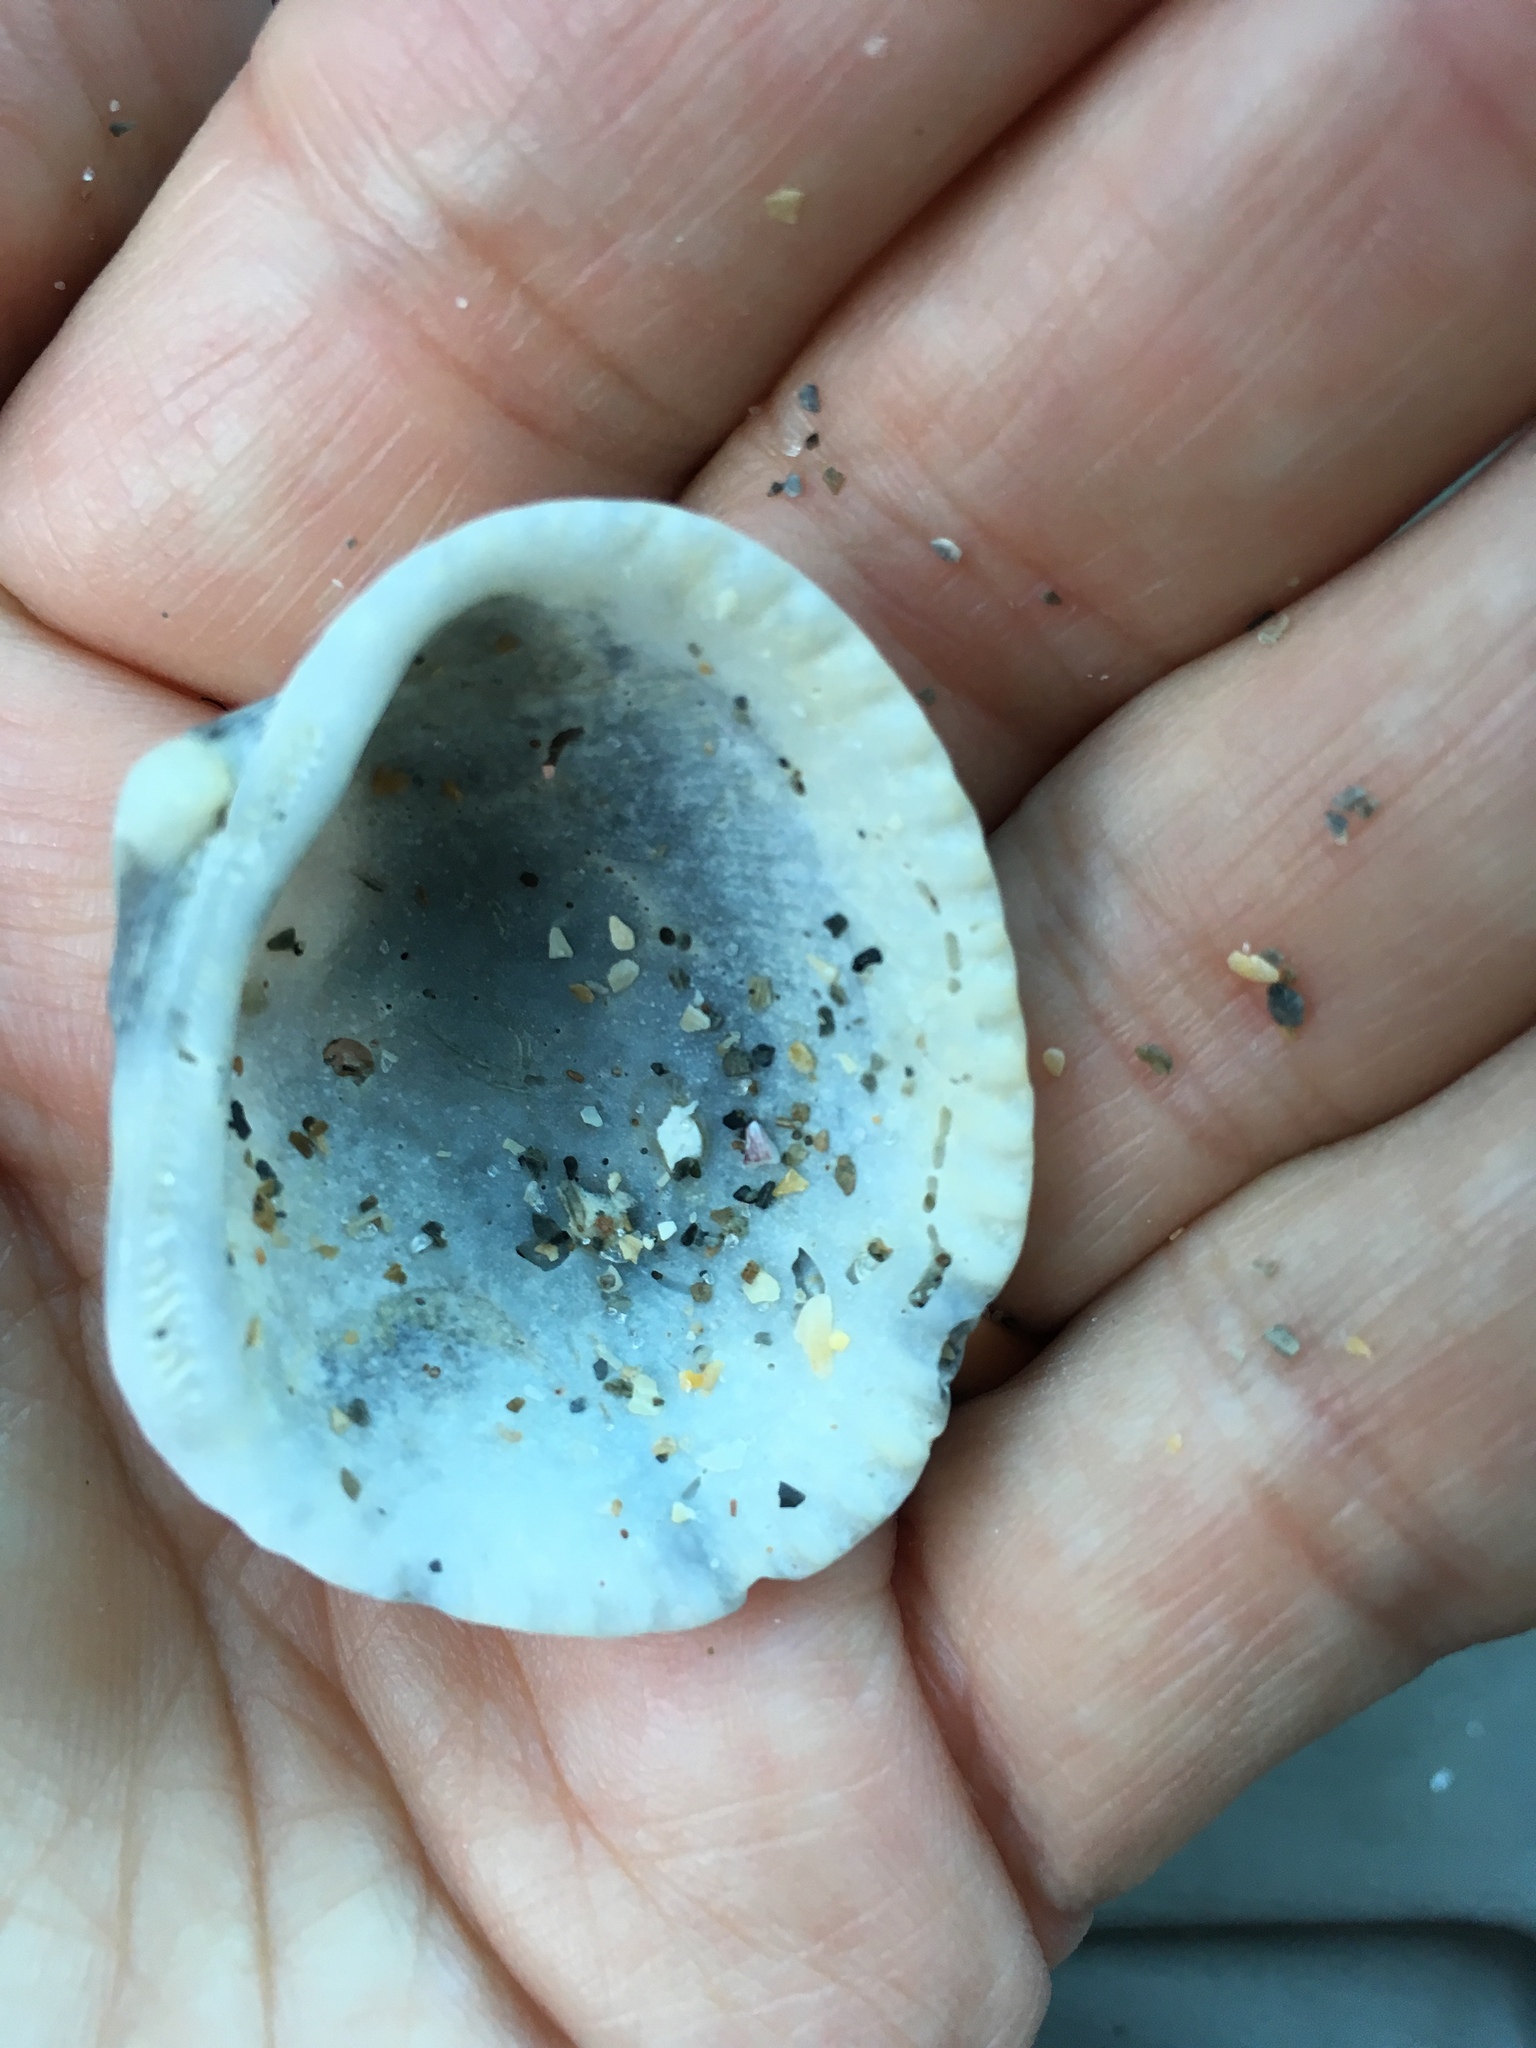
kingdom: Animalia
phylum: Mollusca
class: Bivalvia
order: Arcida
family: Arcidae
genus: Lunarca
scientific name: Lunarca ovalis
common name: Blood ark
